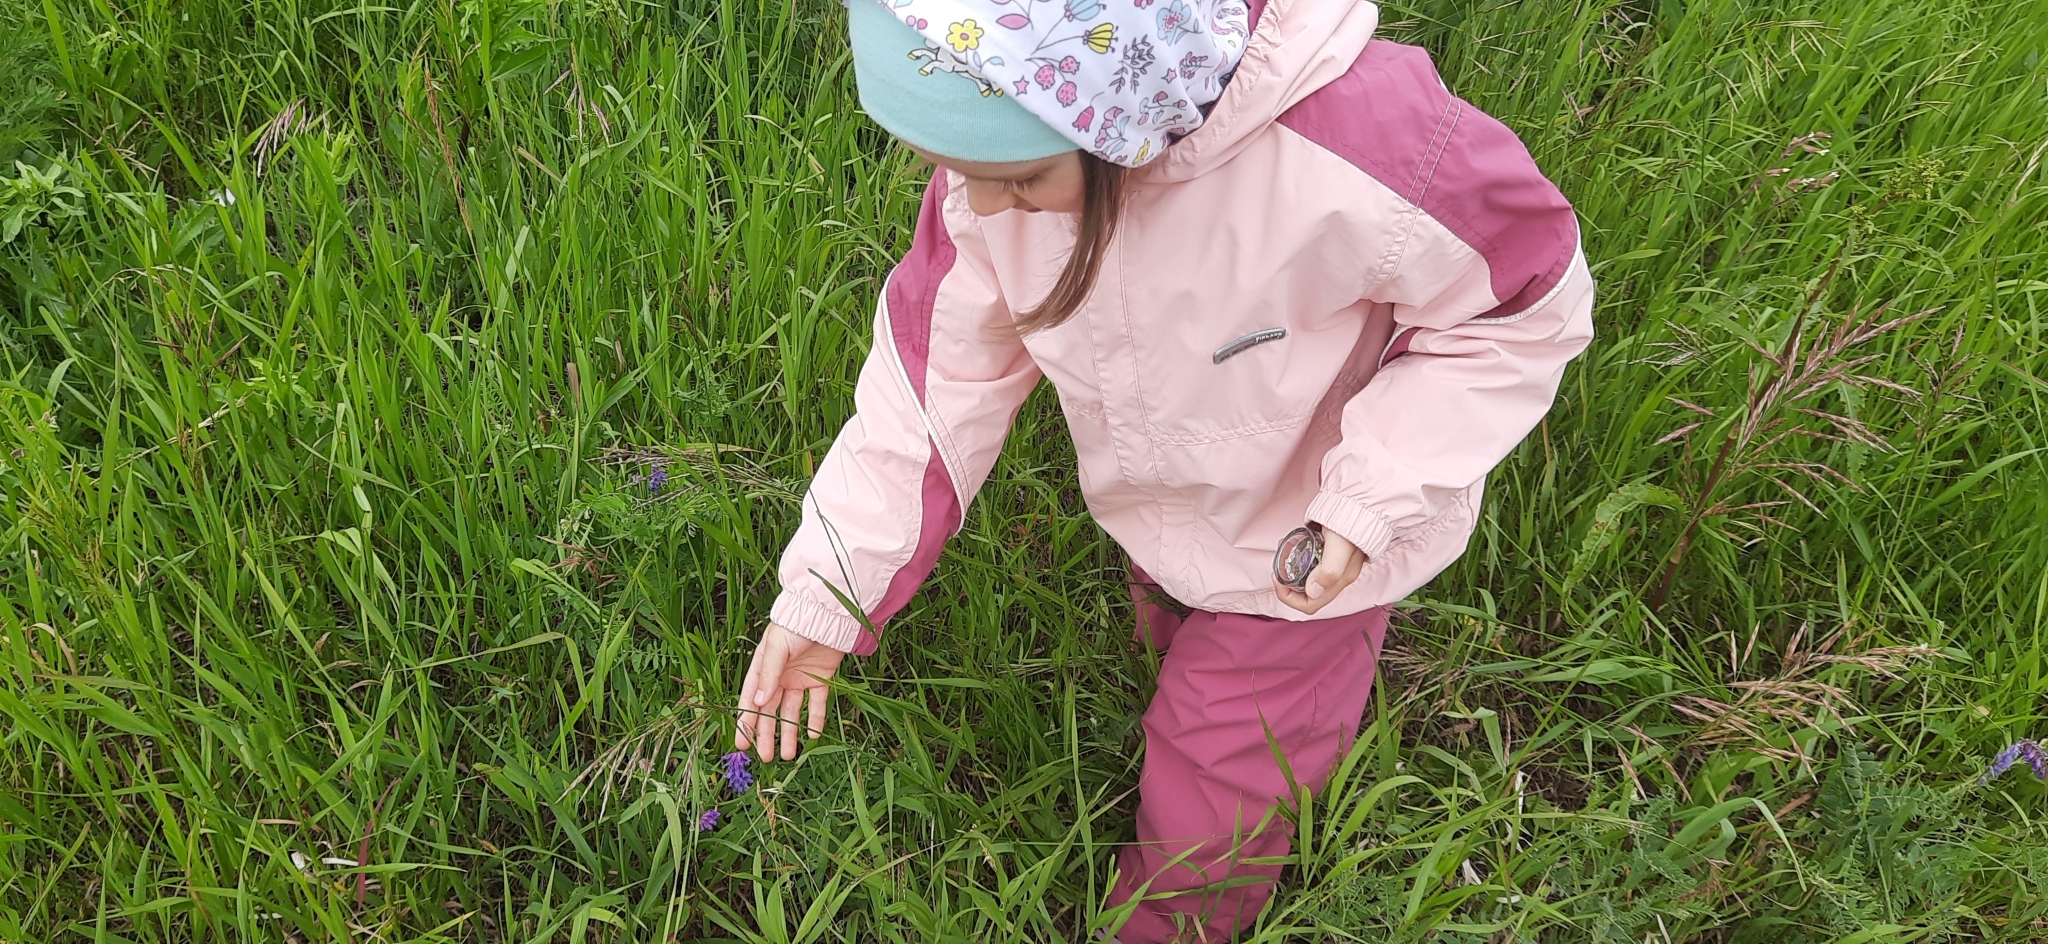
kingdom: Plantae
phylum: Tracheophyta
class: Magnoliopsida
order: Fabales
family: Fabaceae
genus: Vicia
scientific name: Vicia cracca
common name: Bird vetch
